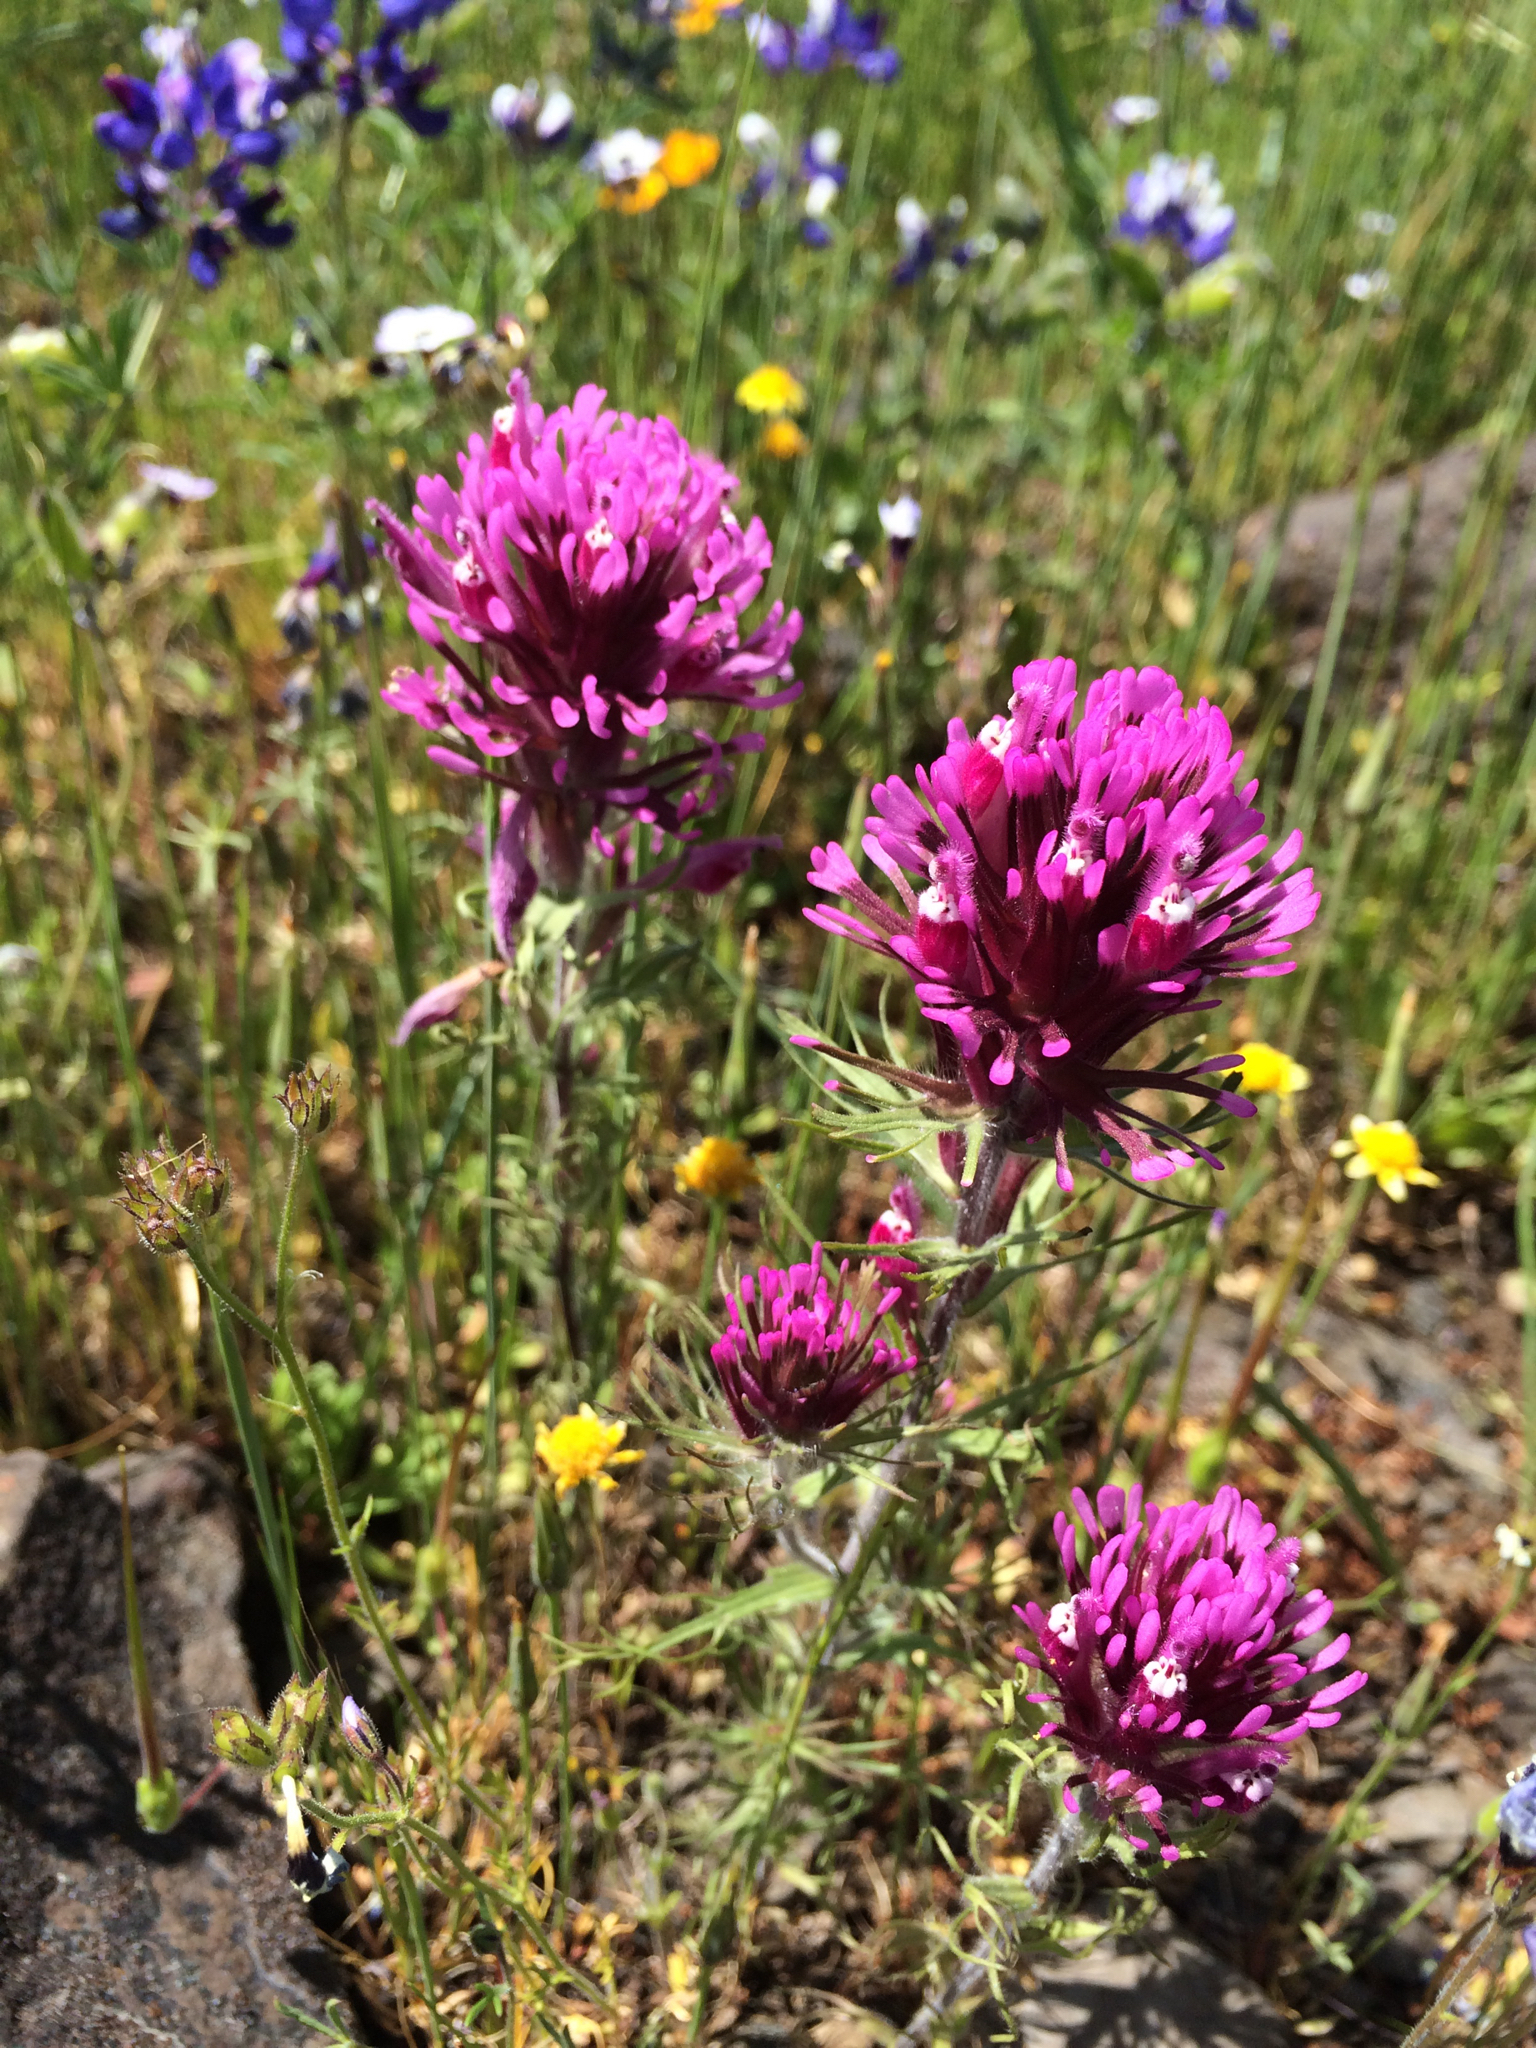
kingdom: Plantae
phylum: Tracheophyta
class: Magnoliopsida
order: Lamiales
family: Orobanchaceae
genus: Castilleja
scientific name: Castilleja exserta
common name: Purple owl-clover
